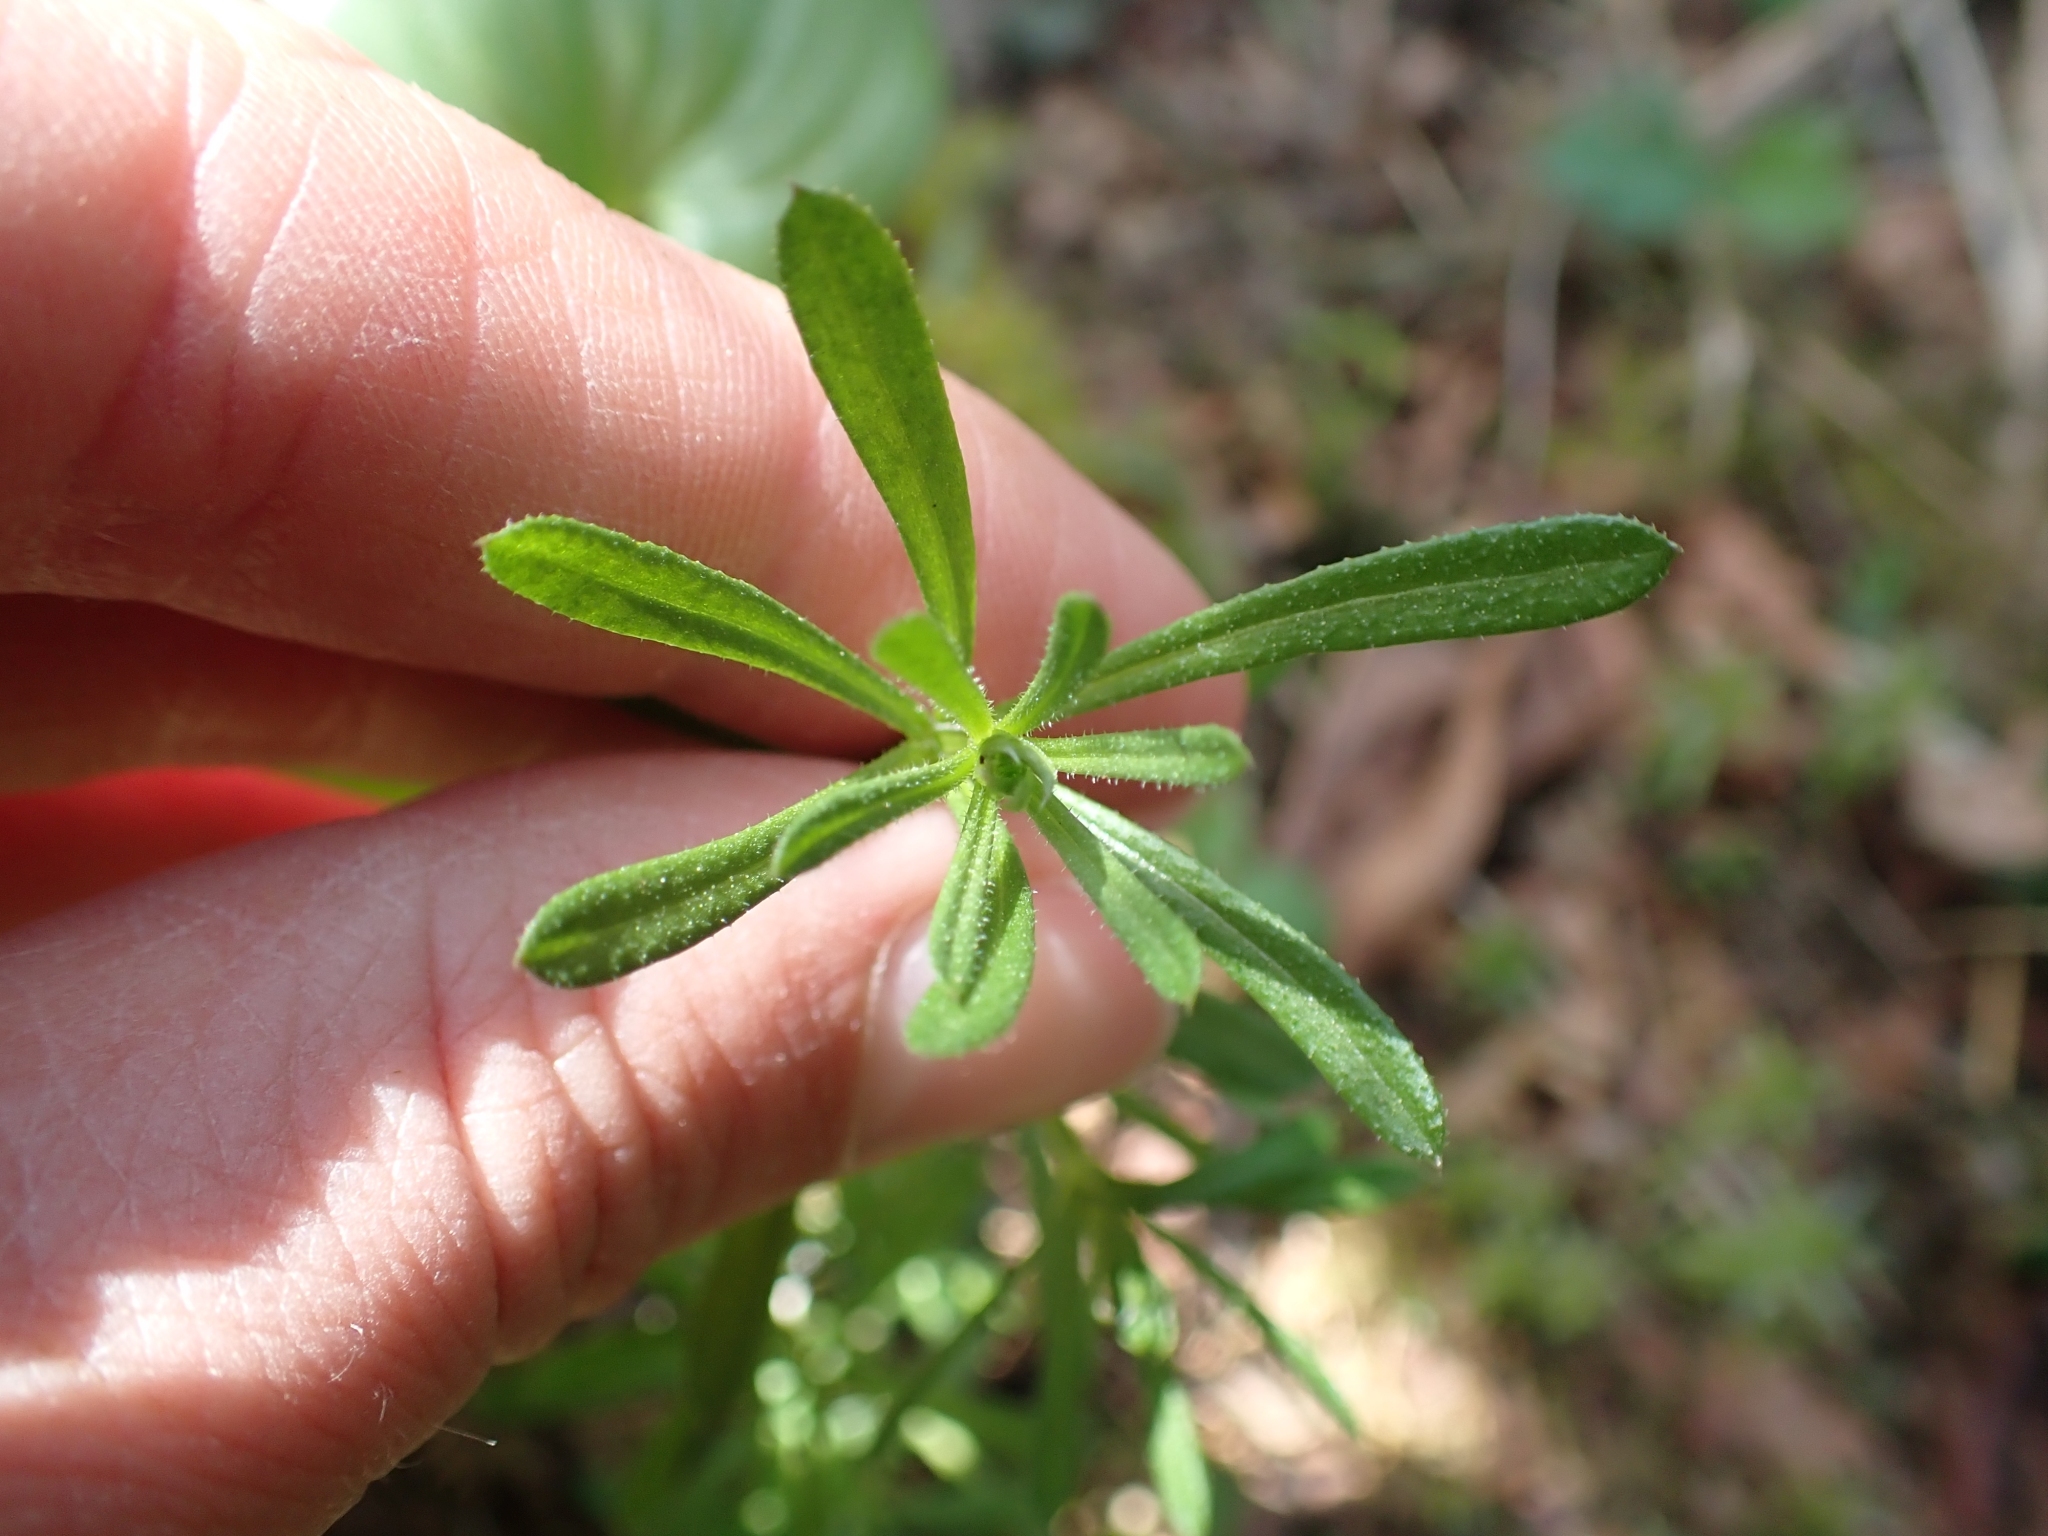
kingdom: Plantae
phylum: Tracheophyta
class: Magnoliopsida
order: Gentianales
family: Rubiaceae
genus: Galium
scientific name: Galium aparine
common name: Cleavers
